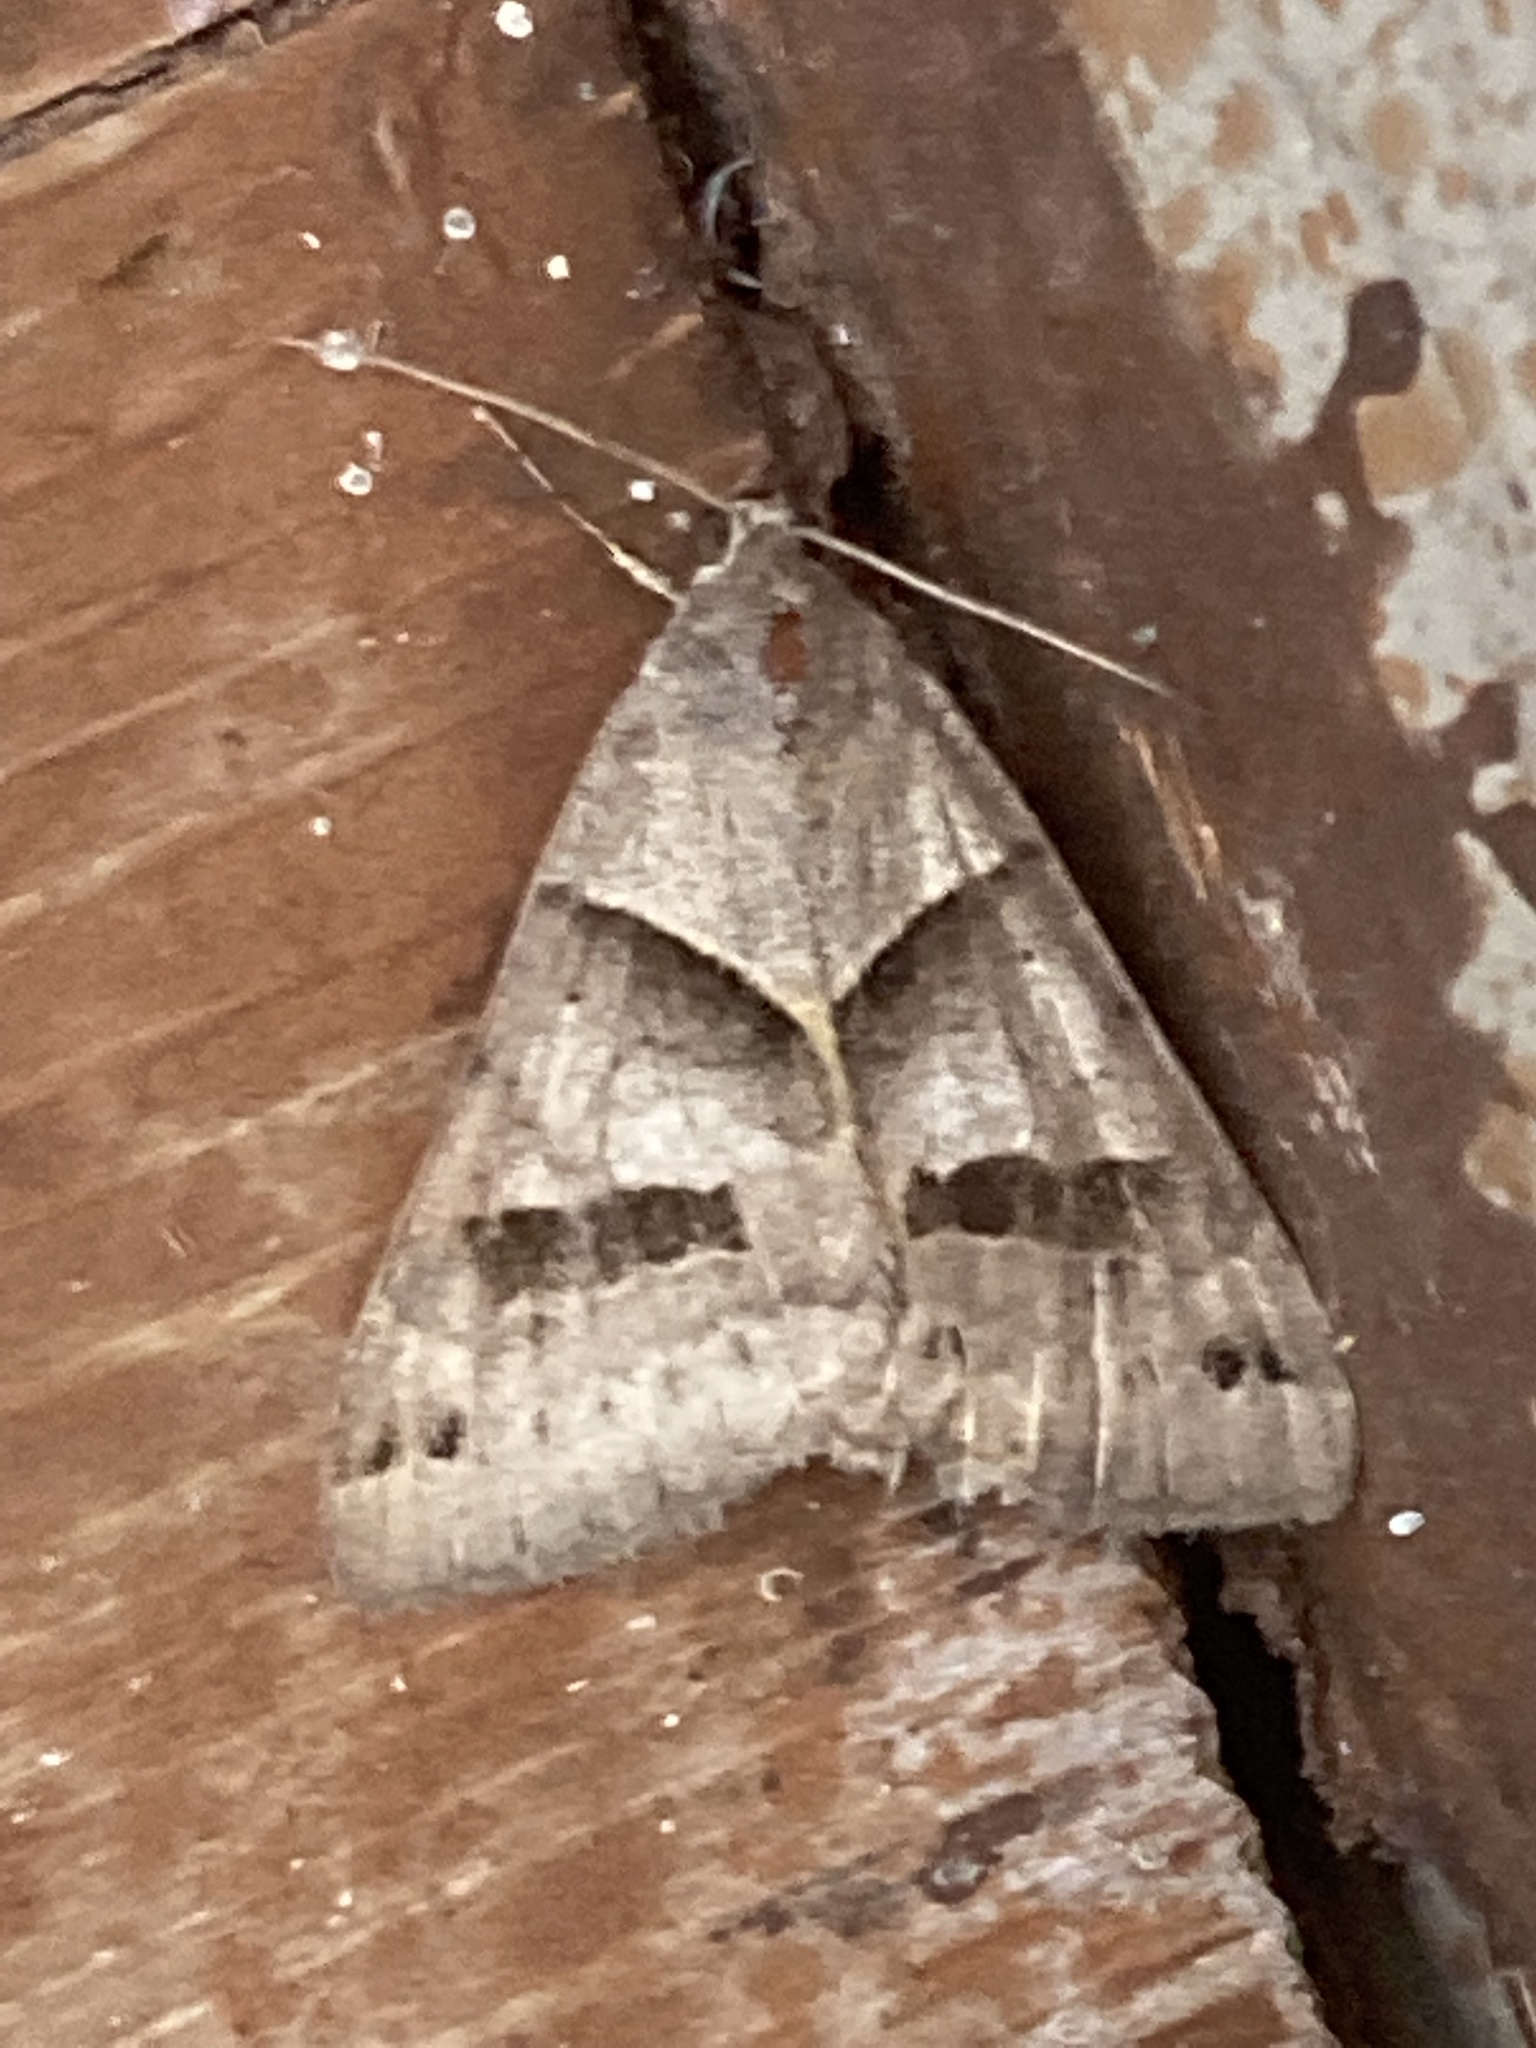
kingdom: Animalia
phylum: Arthropoda
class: Insecta
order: Lepidoptera
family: Erebidae
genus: Caenurgina
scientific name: Caenurgina erechtea
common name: Forage looper moth
